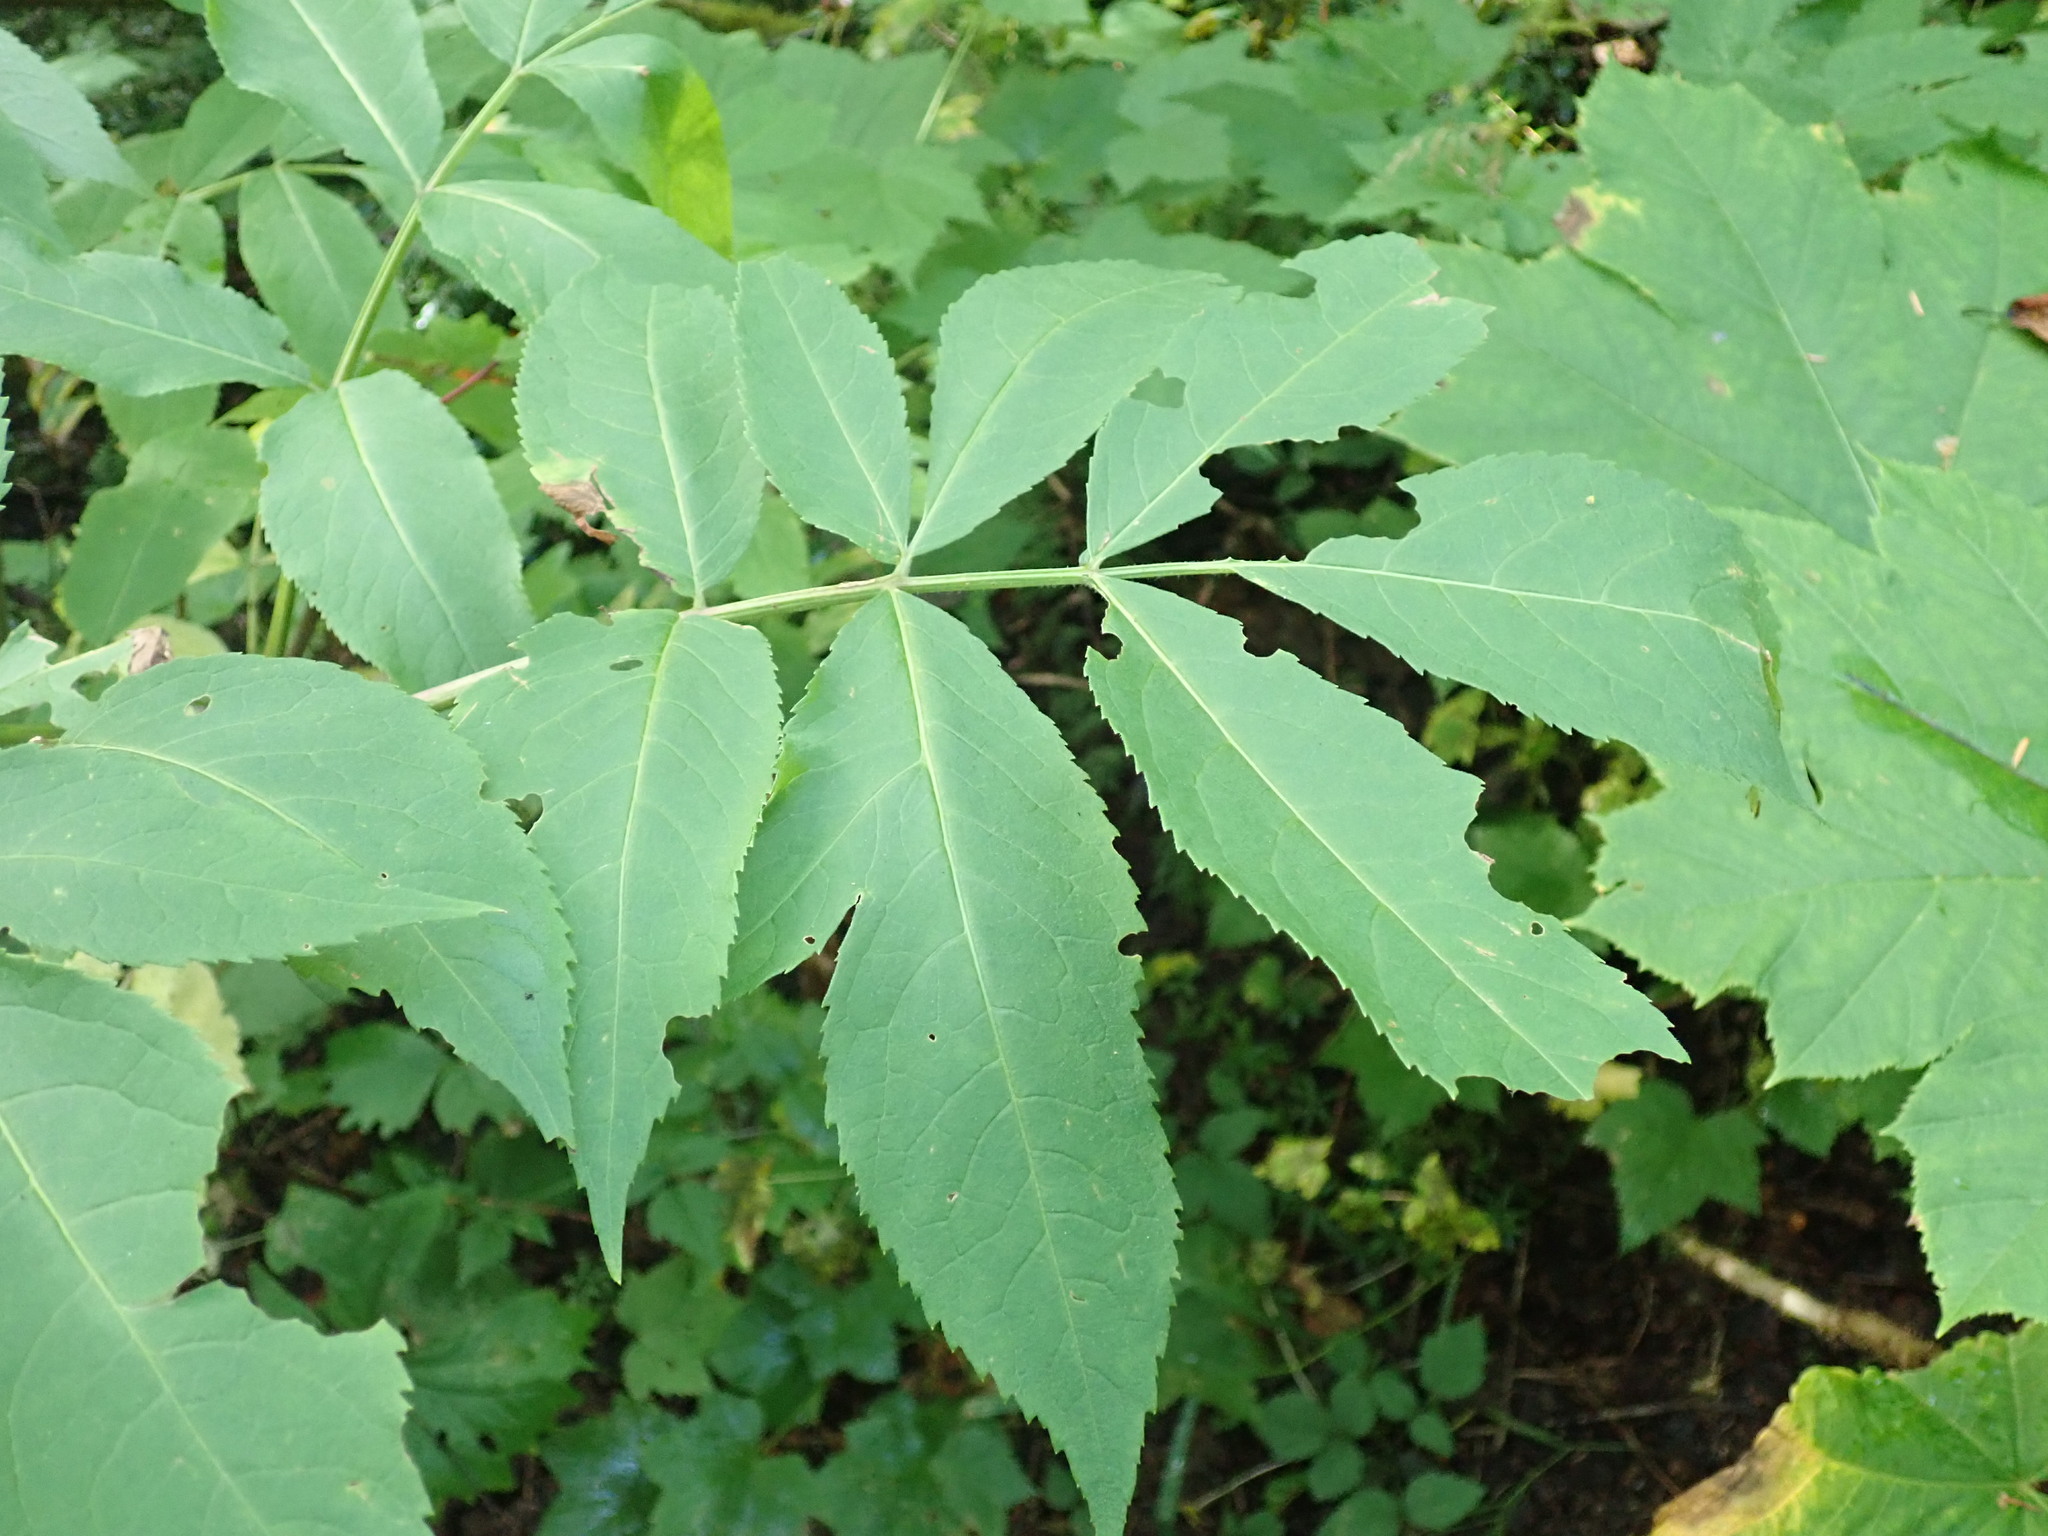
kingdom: Plantae
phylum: Tracheophyta
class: Magnoliopsida
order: Dipsacales
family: Viburnaceae
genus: Sambucus
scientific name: Sambucus racemosa
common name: Red-berried elder
